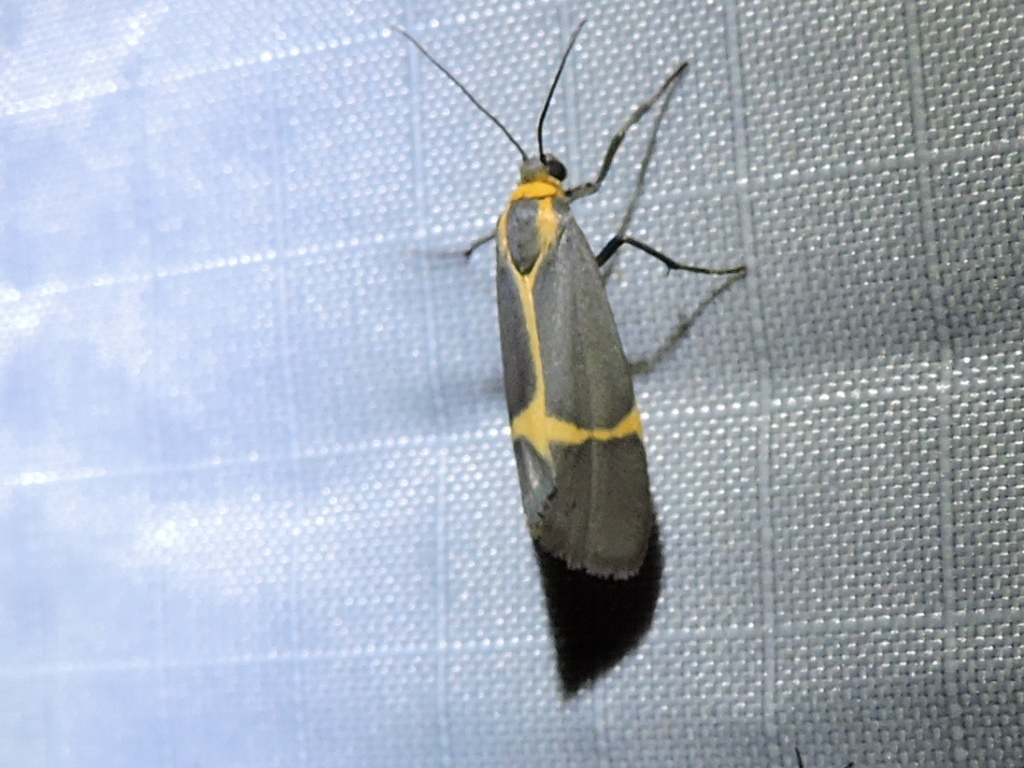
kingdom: Animalia
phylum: Arthropoda
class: Insecta
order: Lepidoptera
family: Erebidae
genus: Cisthene
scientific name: Cisthene barnesii
